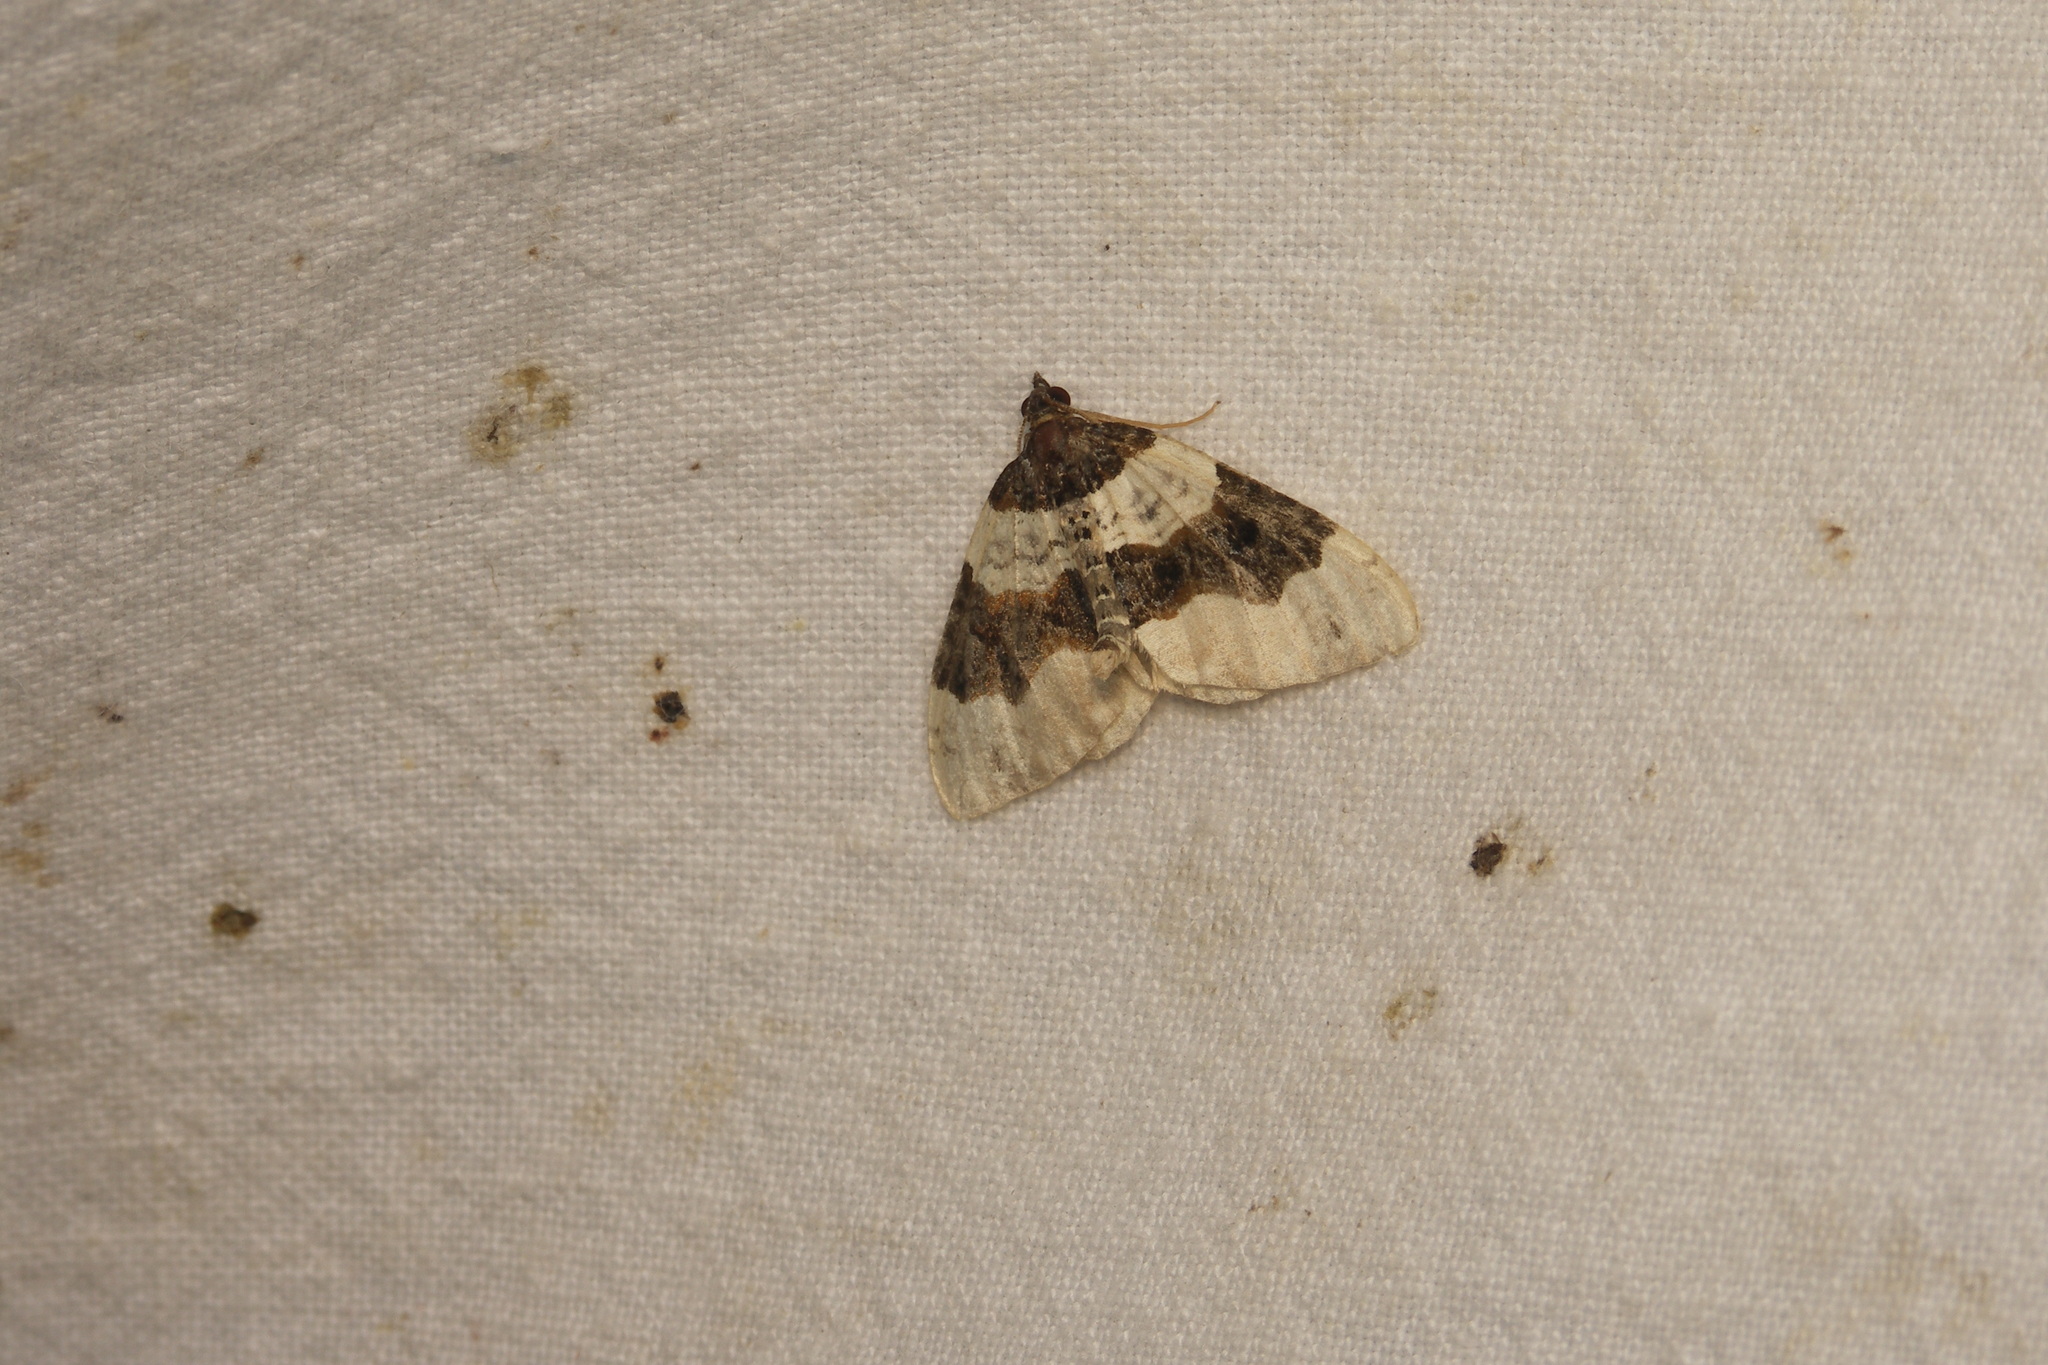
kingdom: Animalia
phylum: Arthropoda
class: Insecta
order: Lepidoptera
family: Geometridae
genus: Cosmorhoe
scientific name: Cosmorhoe ocellata
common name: Purple bar
